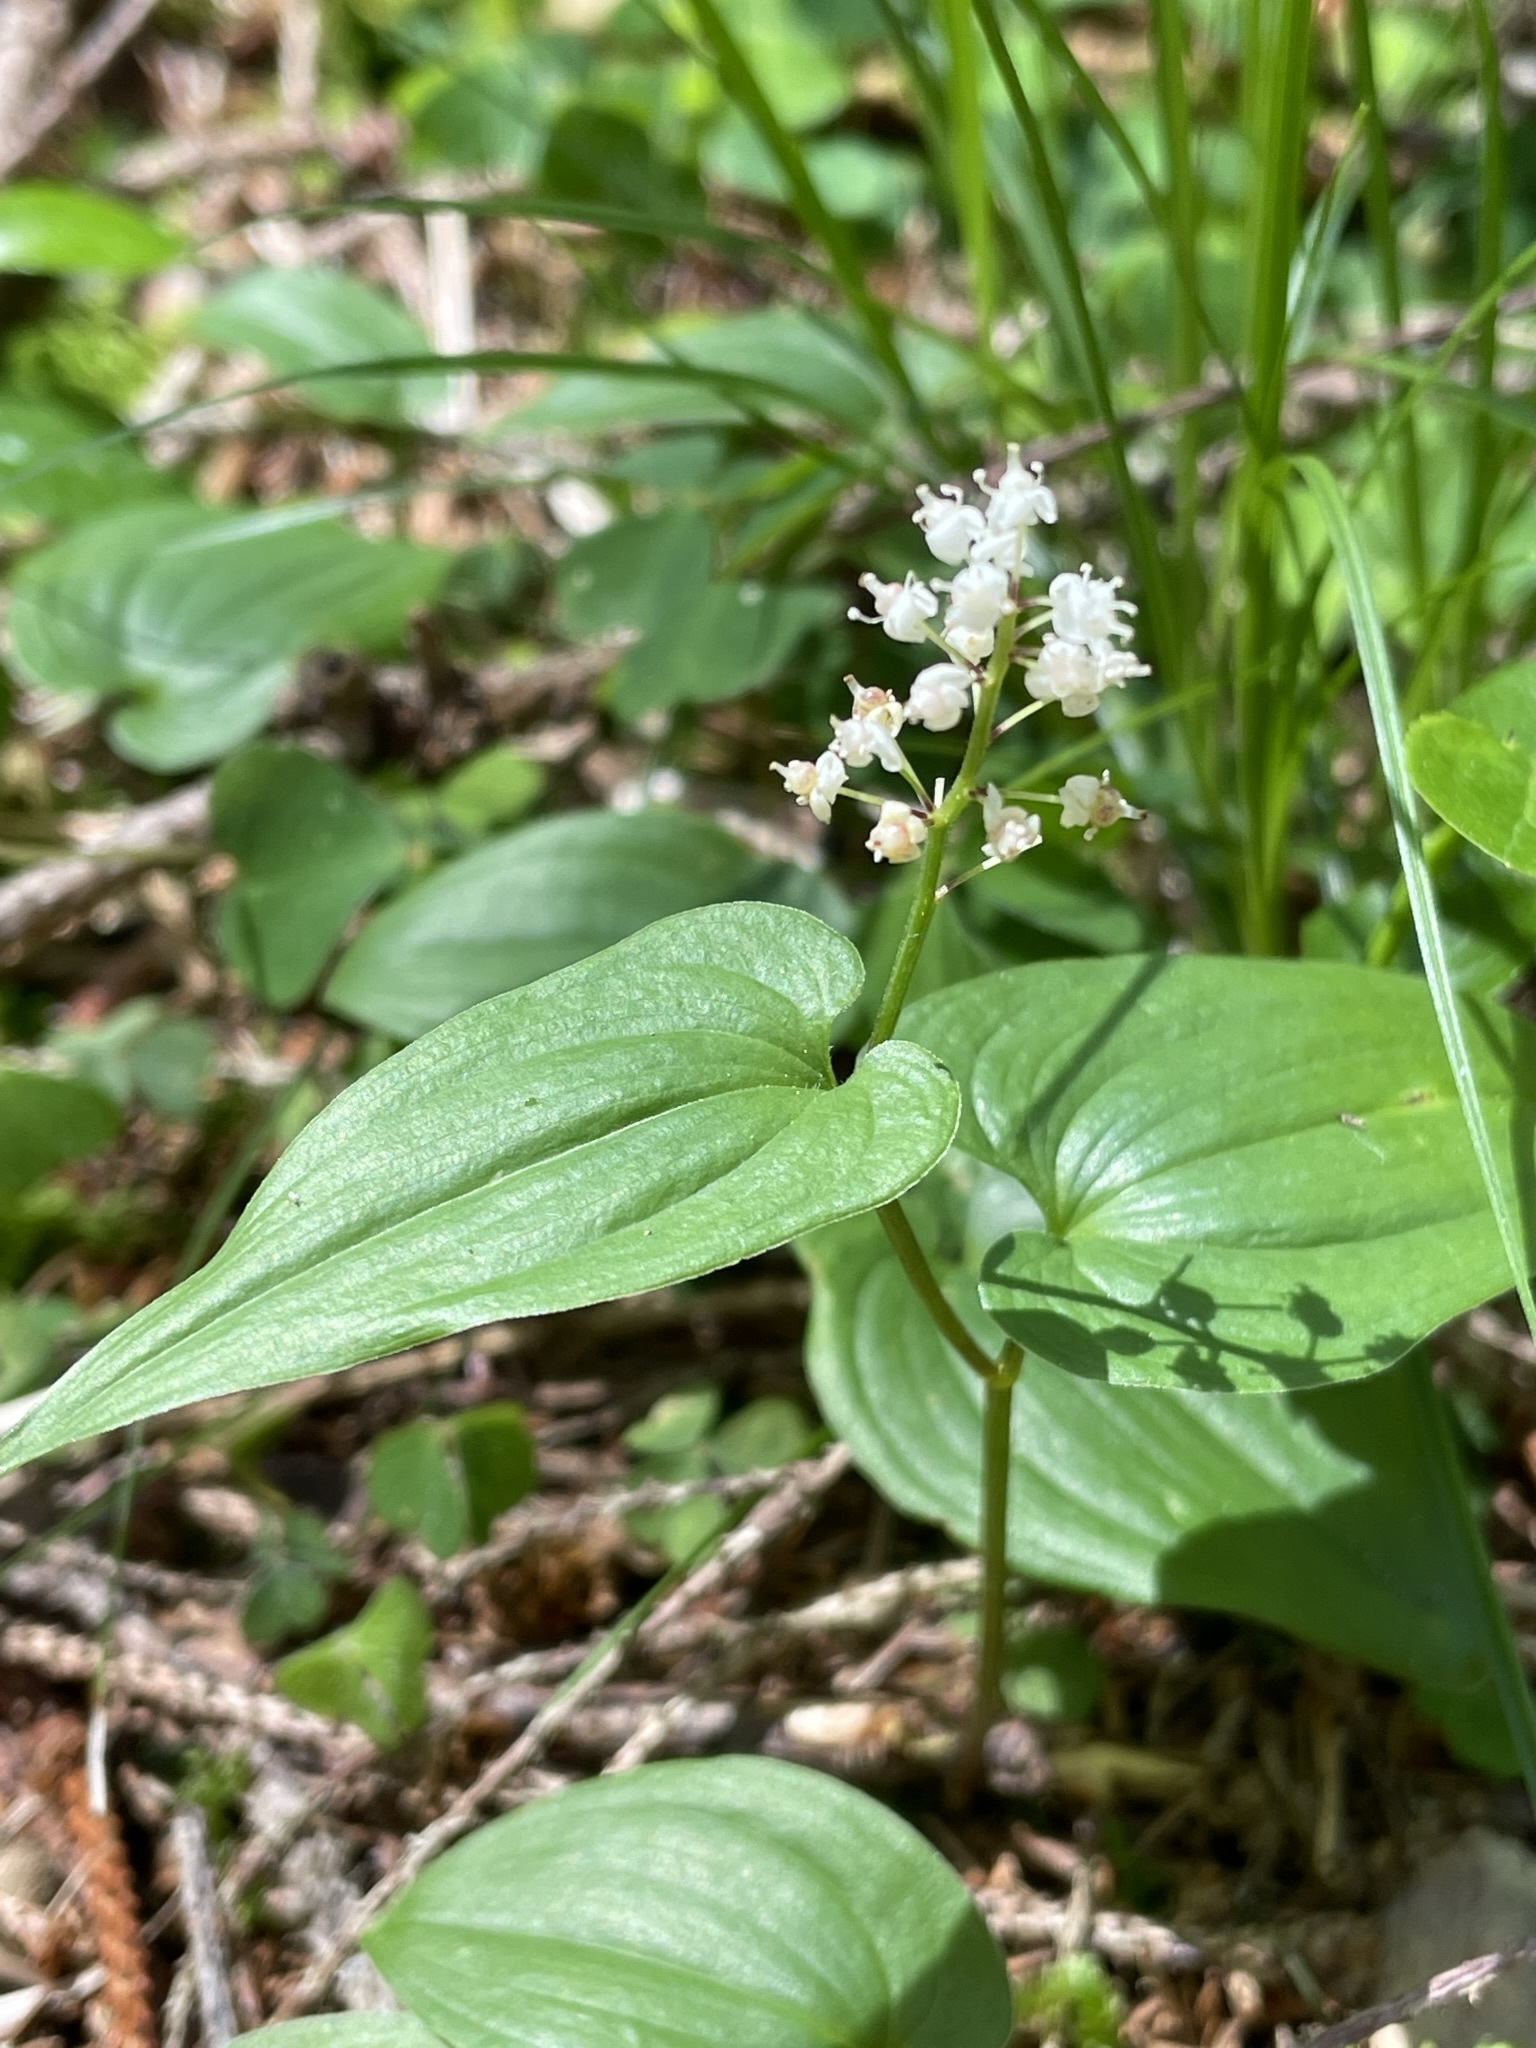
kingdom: Plantae
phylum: Tracheophyta
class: Liliopsida
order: Asparagales
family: Asparagaceae
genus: Maianthemum
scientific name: Maianthemum bifolium
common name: May lily
